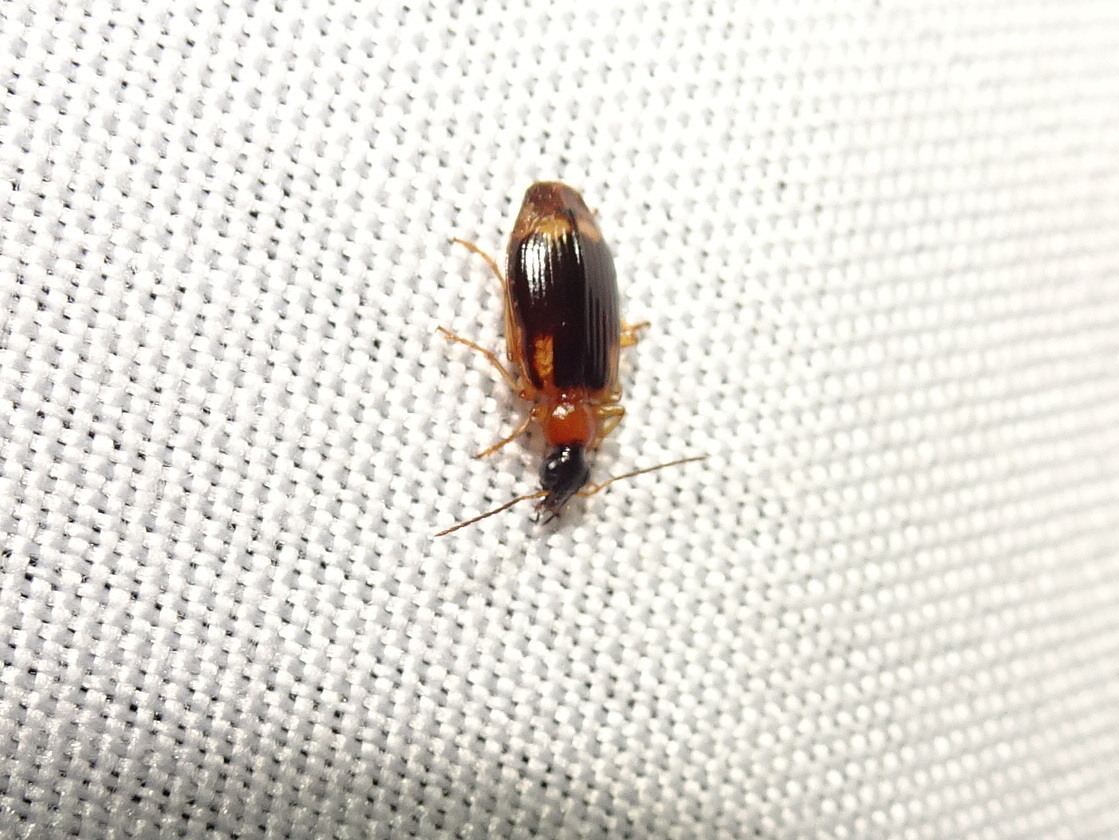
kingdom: Animalia
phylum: Arthropoda
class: Insecta
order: Coleoptera
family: Carabidae
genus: Lebia
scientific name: Lebia analis
